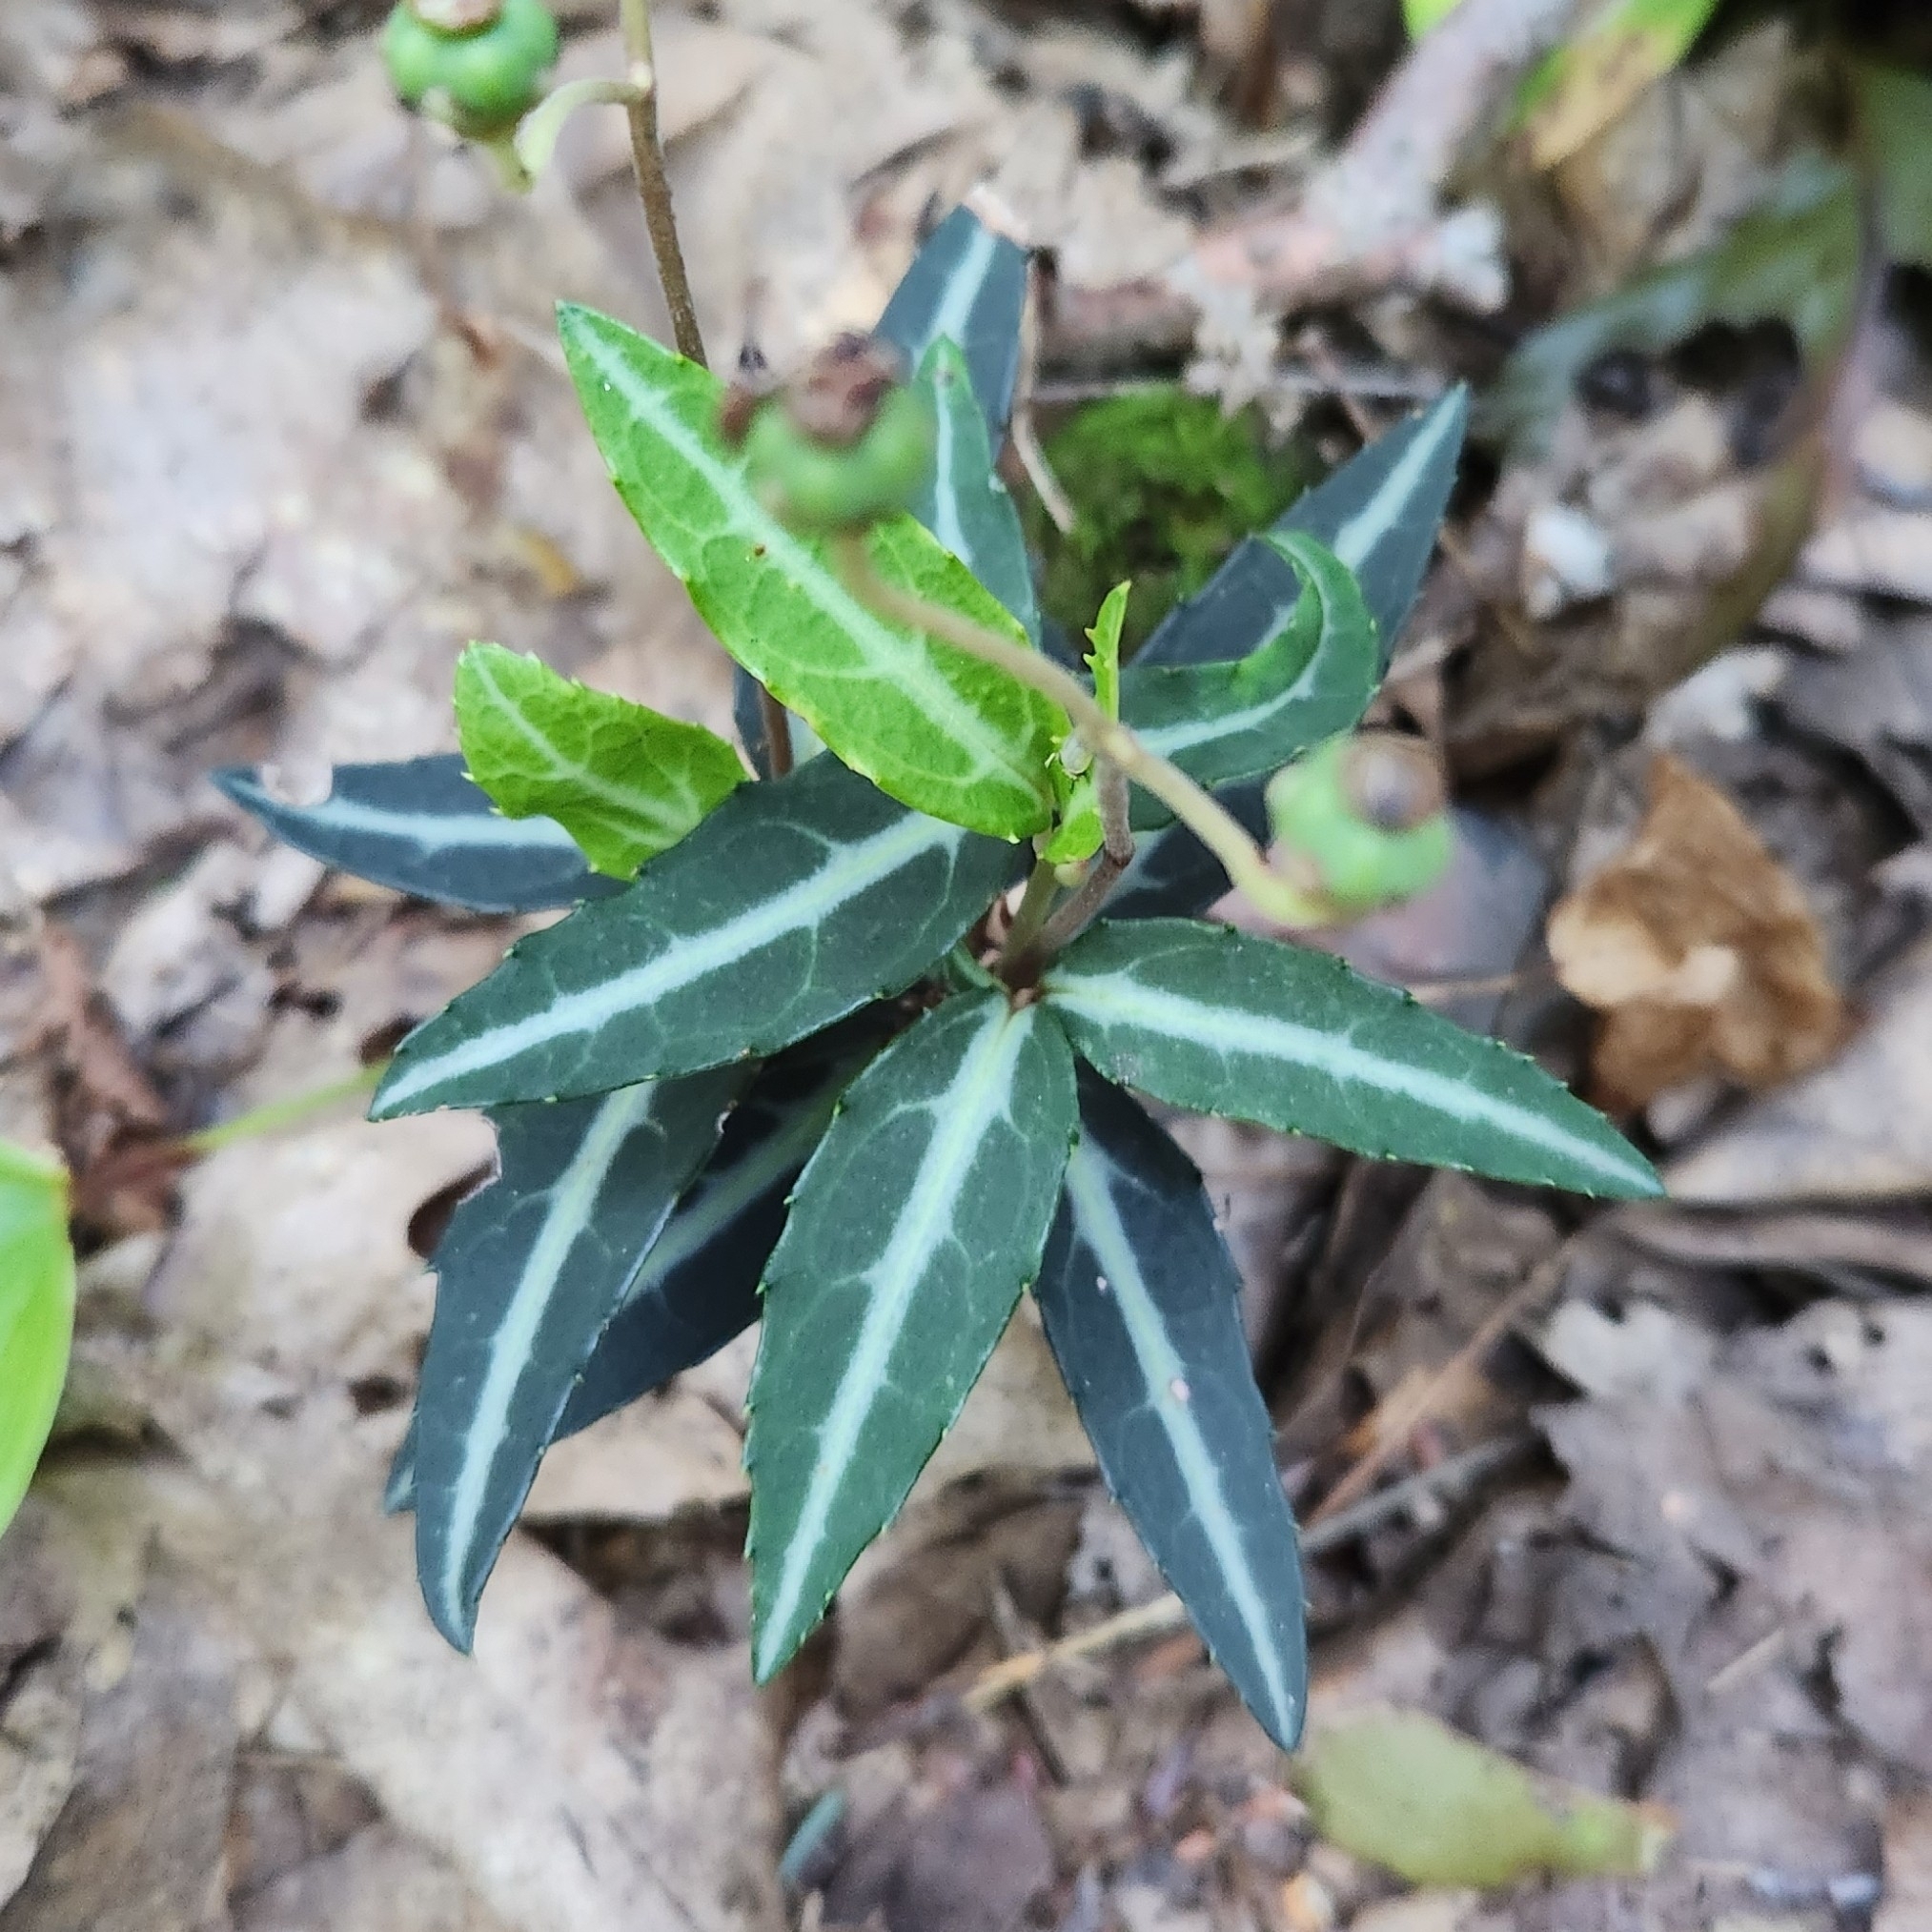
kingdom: Plantae
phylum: Tracheophyta
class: Magnoliopsida
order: Ericales
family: Ericaceae
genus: Chimaphila
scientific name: Chimaphila maculata
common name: Spotted pipsissewa
